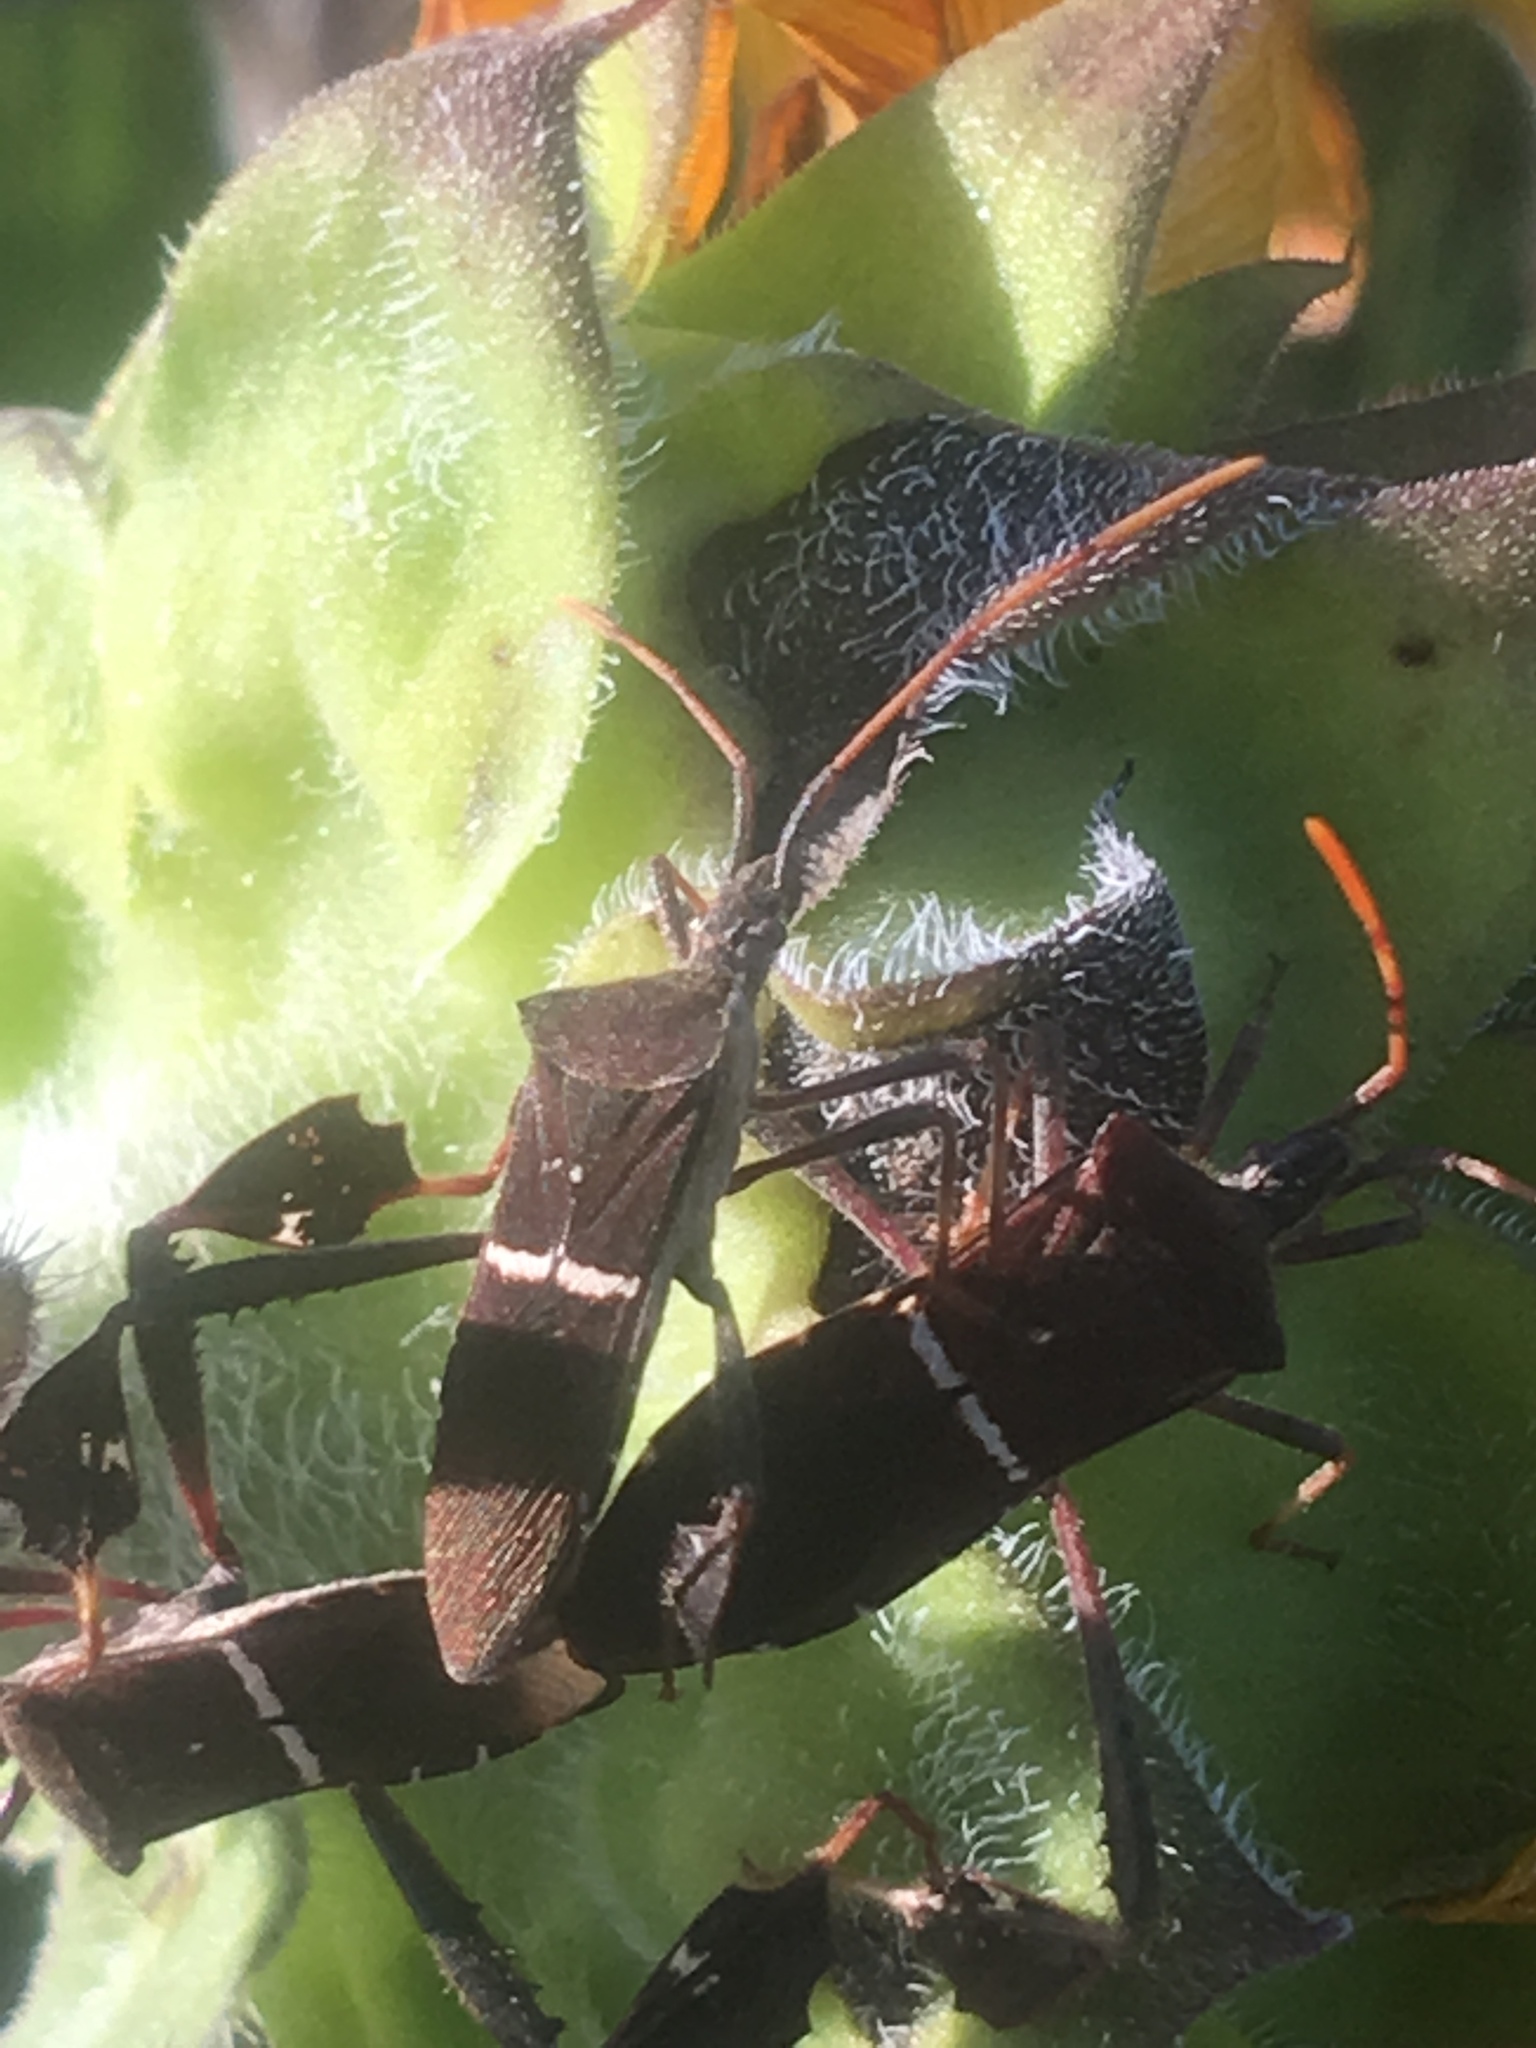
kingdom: Animalia
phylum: Arthropoda
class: Insecta
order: Hemiptera
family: Coreidae
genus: Leptoglossus
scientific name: Leptoglossus phyllopus
